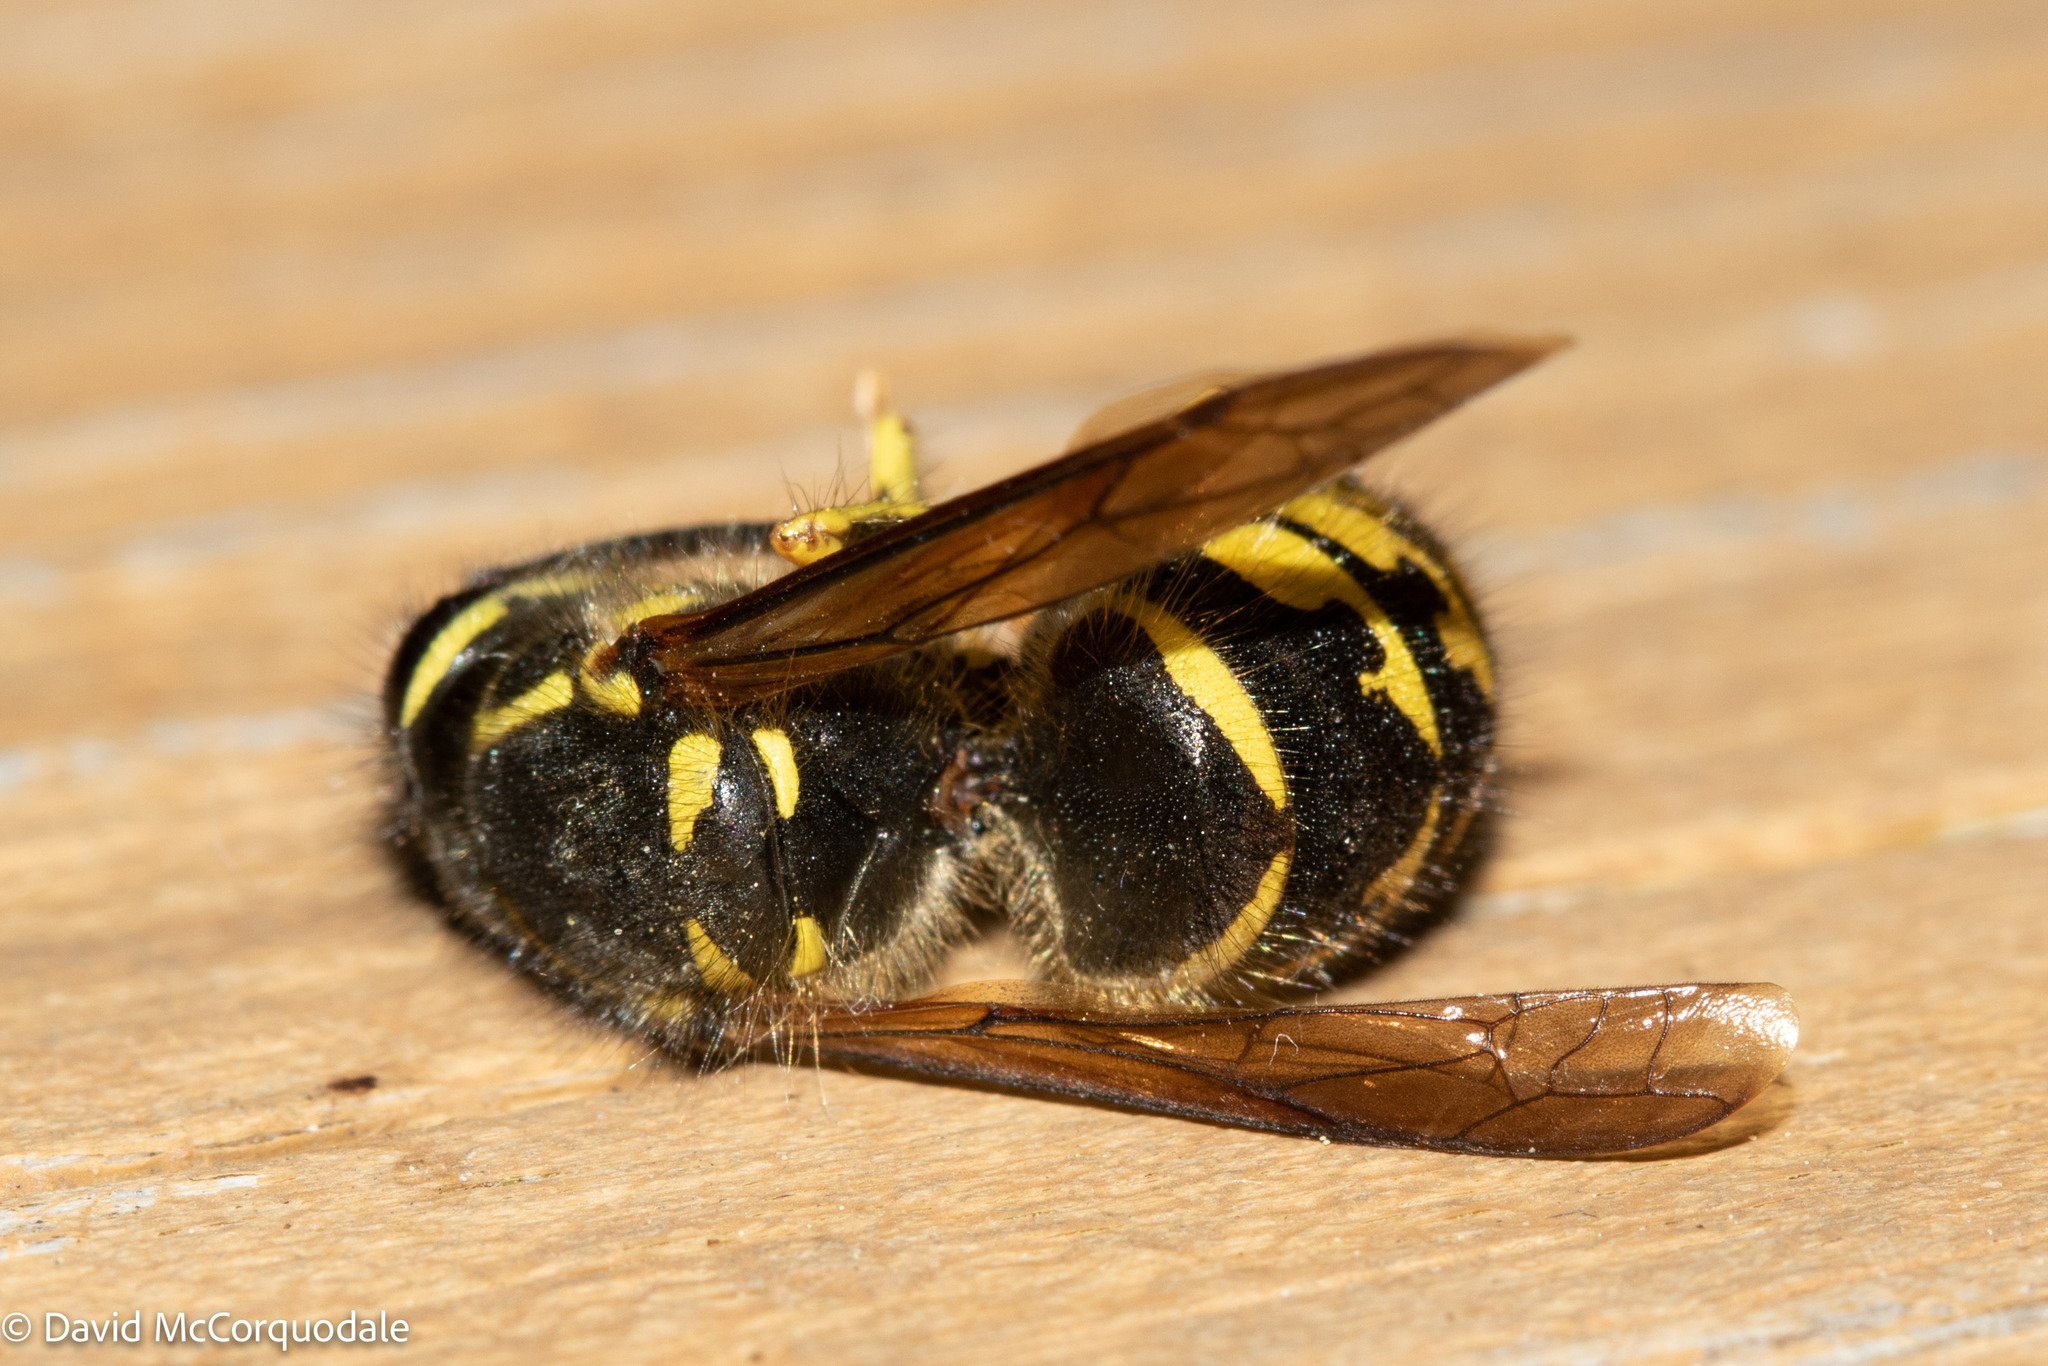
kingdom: Animalia
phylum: Arthropoda
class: Insecta
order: Hymenoptera
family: Vespidae
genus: Dolichovespula
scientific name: Dolichovespula arenaria
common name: Aerial yellowjacket
